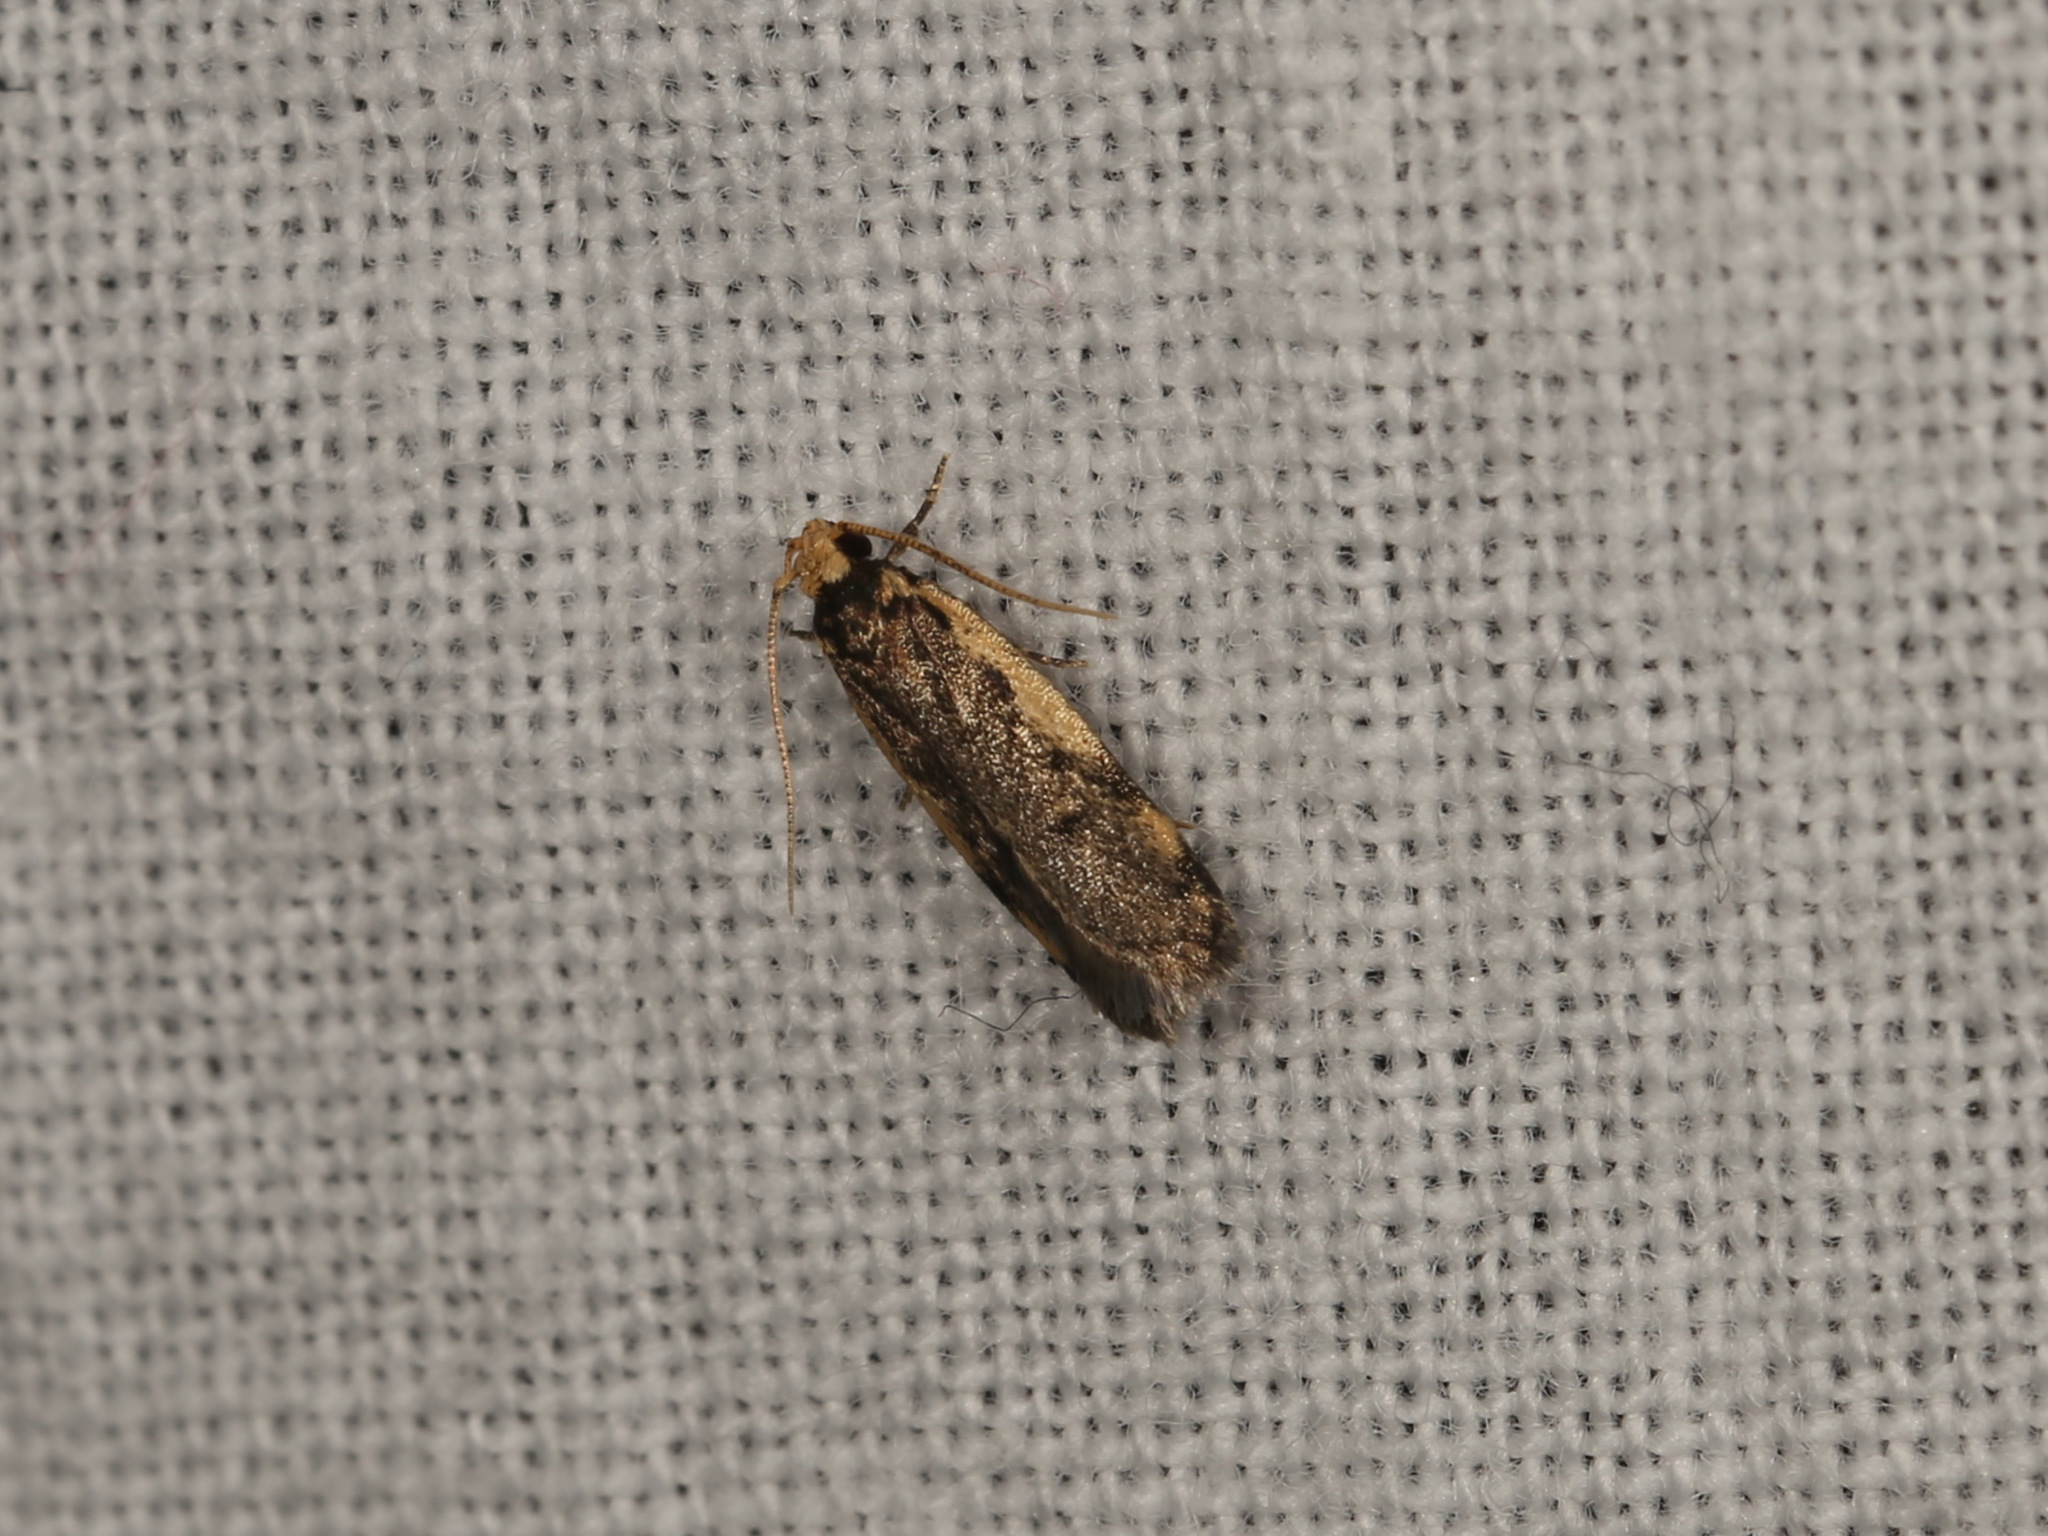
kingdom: Animalia
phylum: Arthropoda
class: Insecta
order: Lepidoptera
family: Oecophoridae
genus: Hoplostega
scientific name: Hoplostega ochroma
